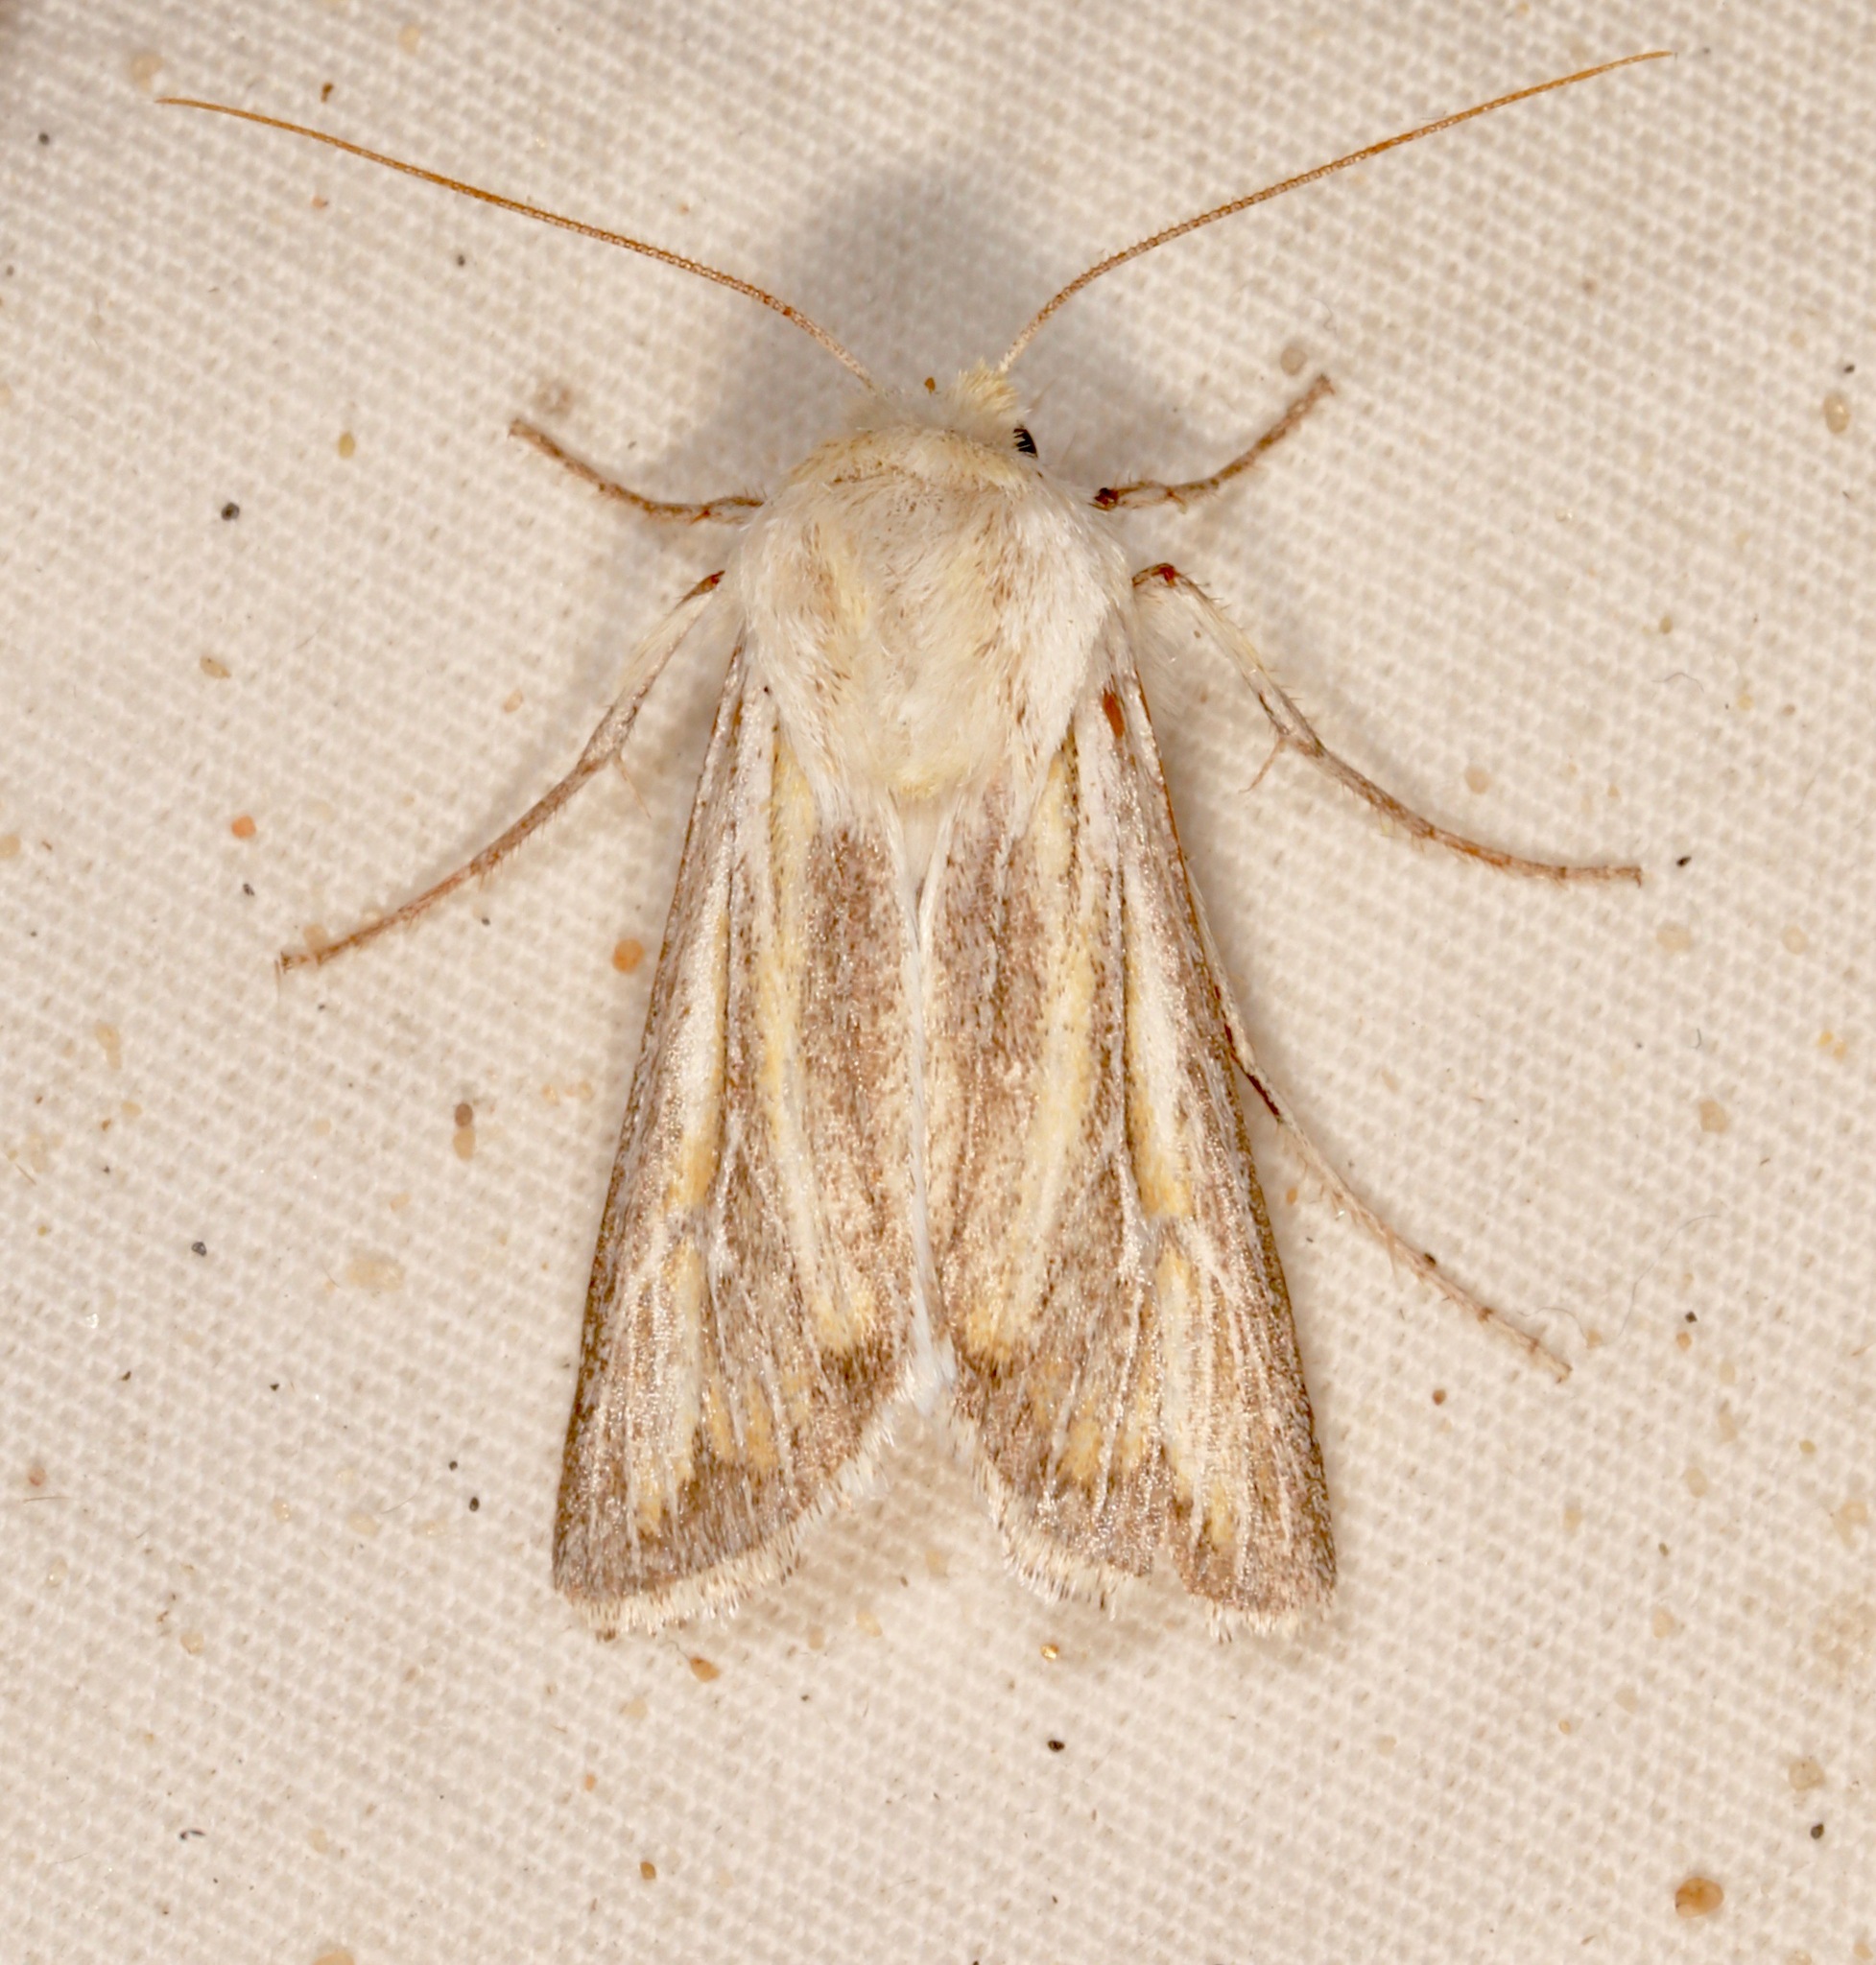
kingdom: Animalia
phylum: Arthropoda
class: Insecta
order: Lepidoptera
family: Noctuidae
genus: Protogygia
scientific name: Protogygia polingi
